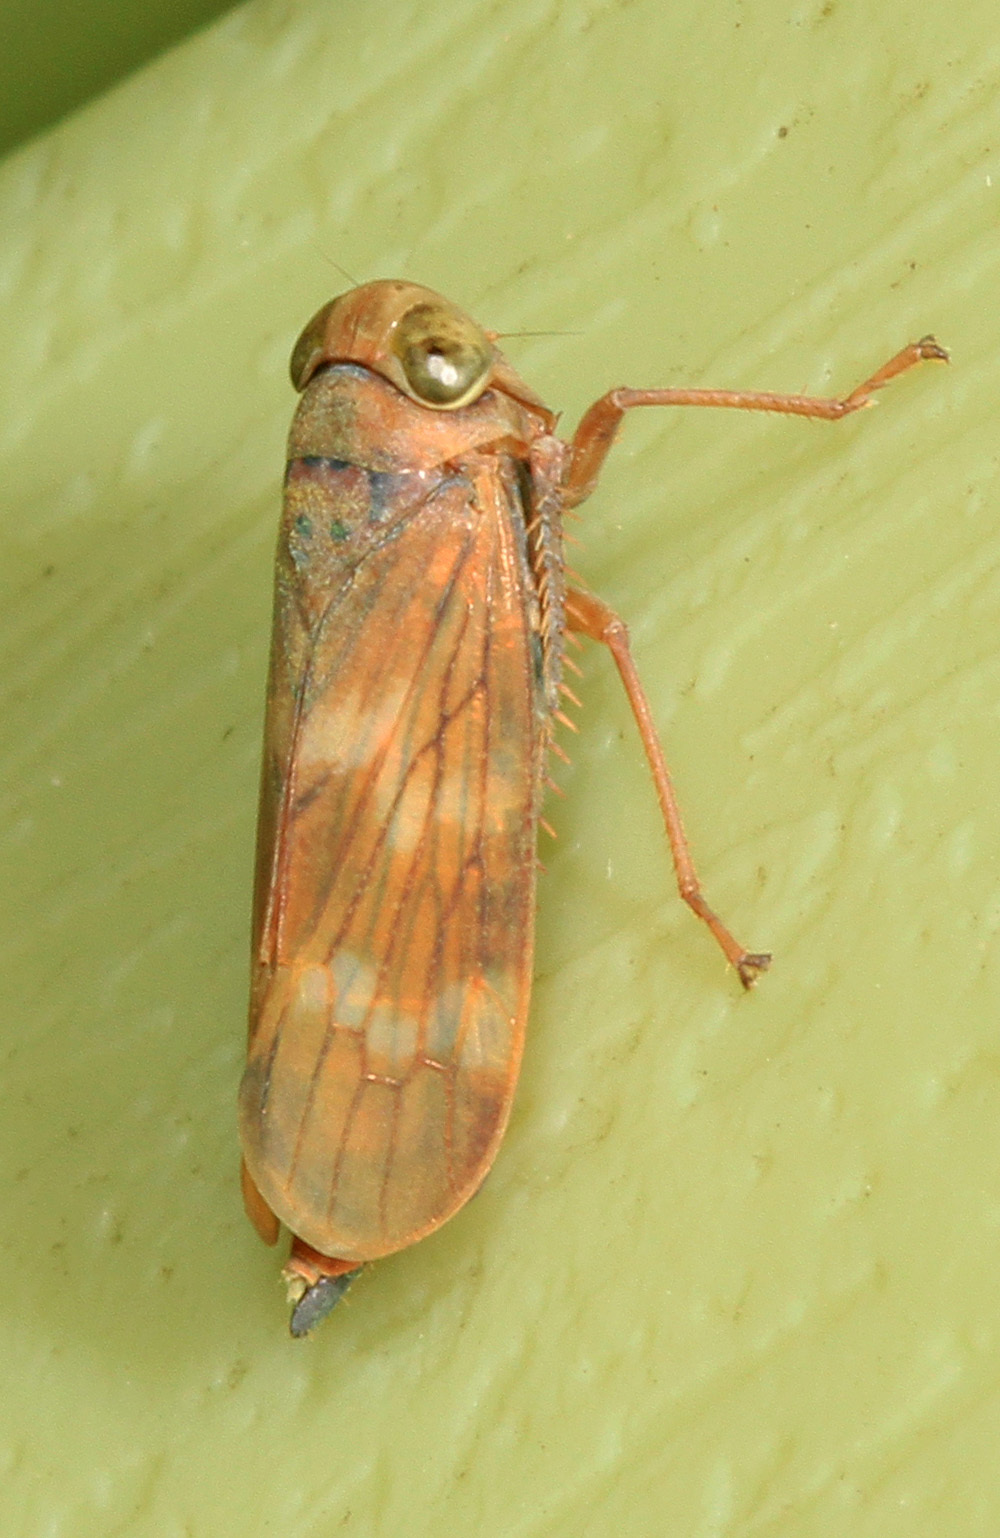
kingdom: Animalia
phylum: Arthropoda
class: Insecta
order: Hemiptera
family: Cicadellidae
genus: Jikradia
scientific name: Jikradia olitoria
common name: Coppery leafhopper
